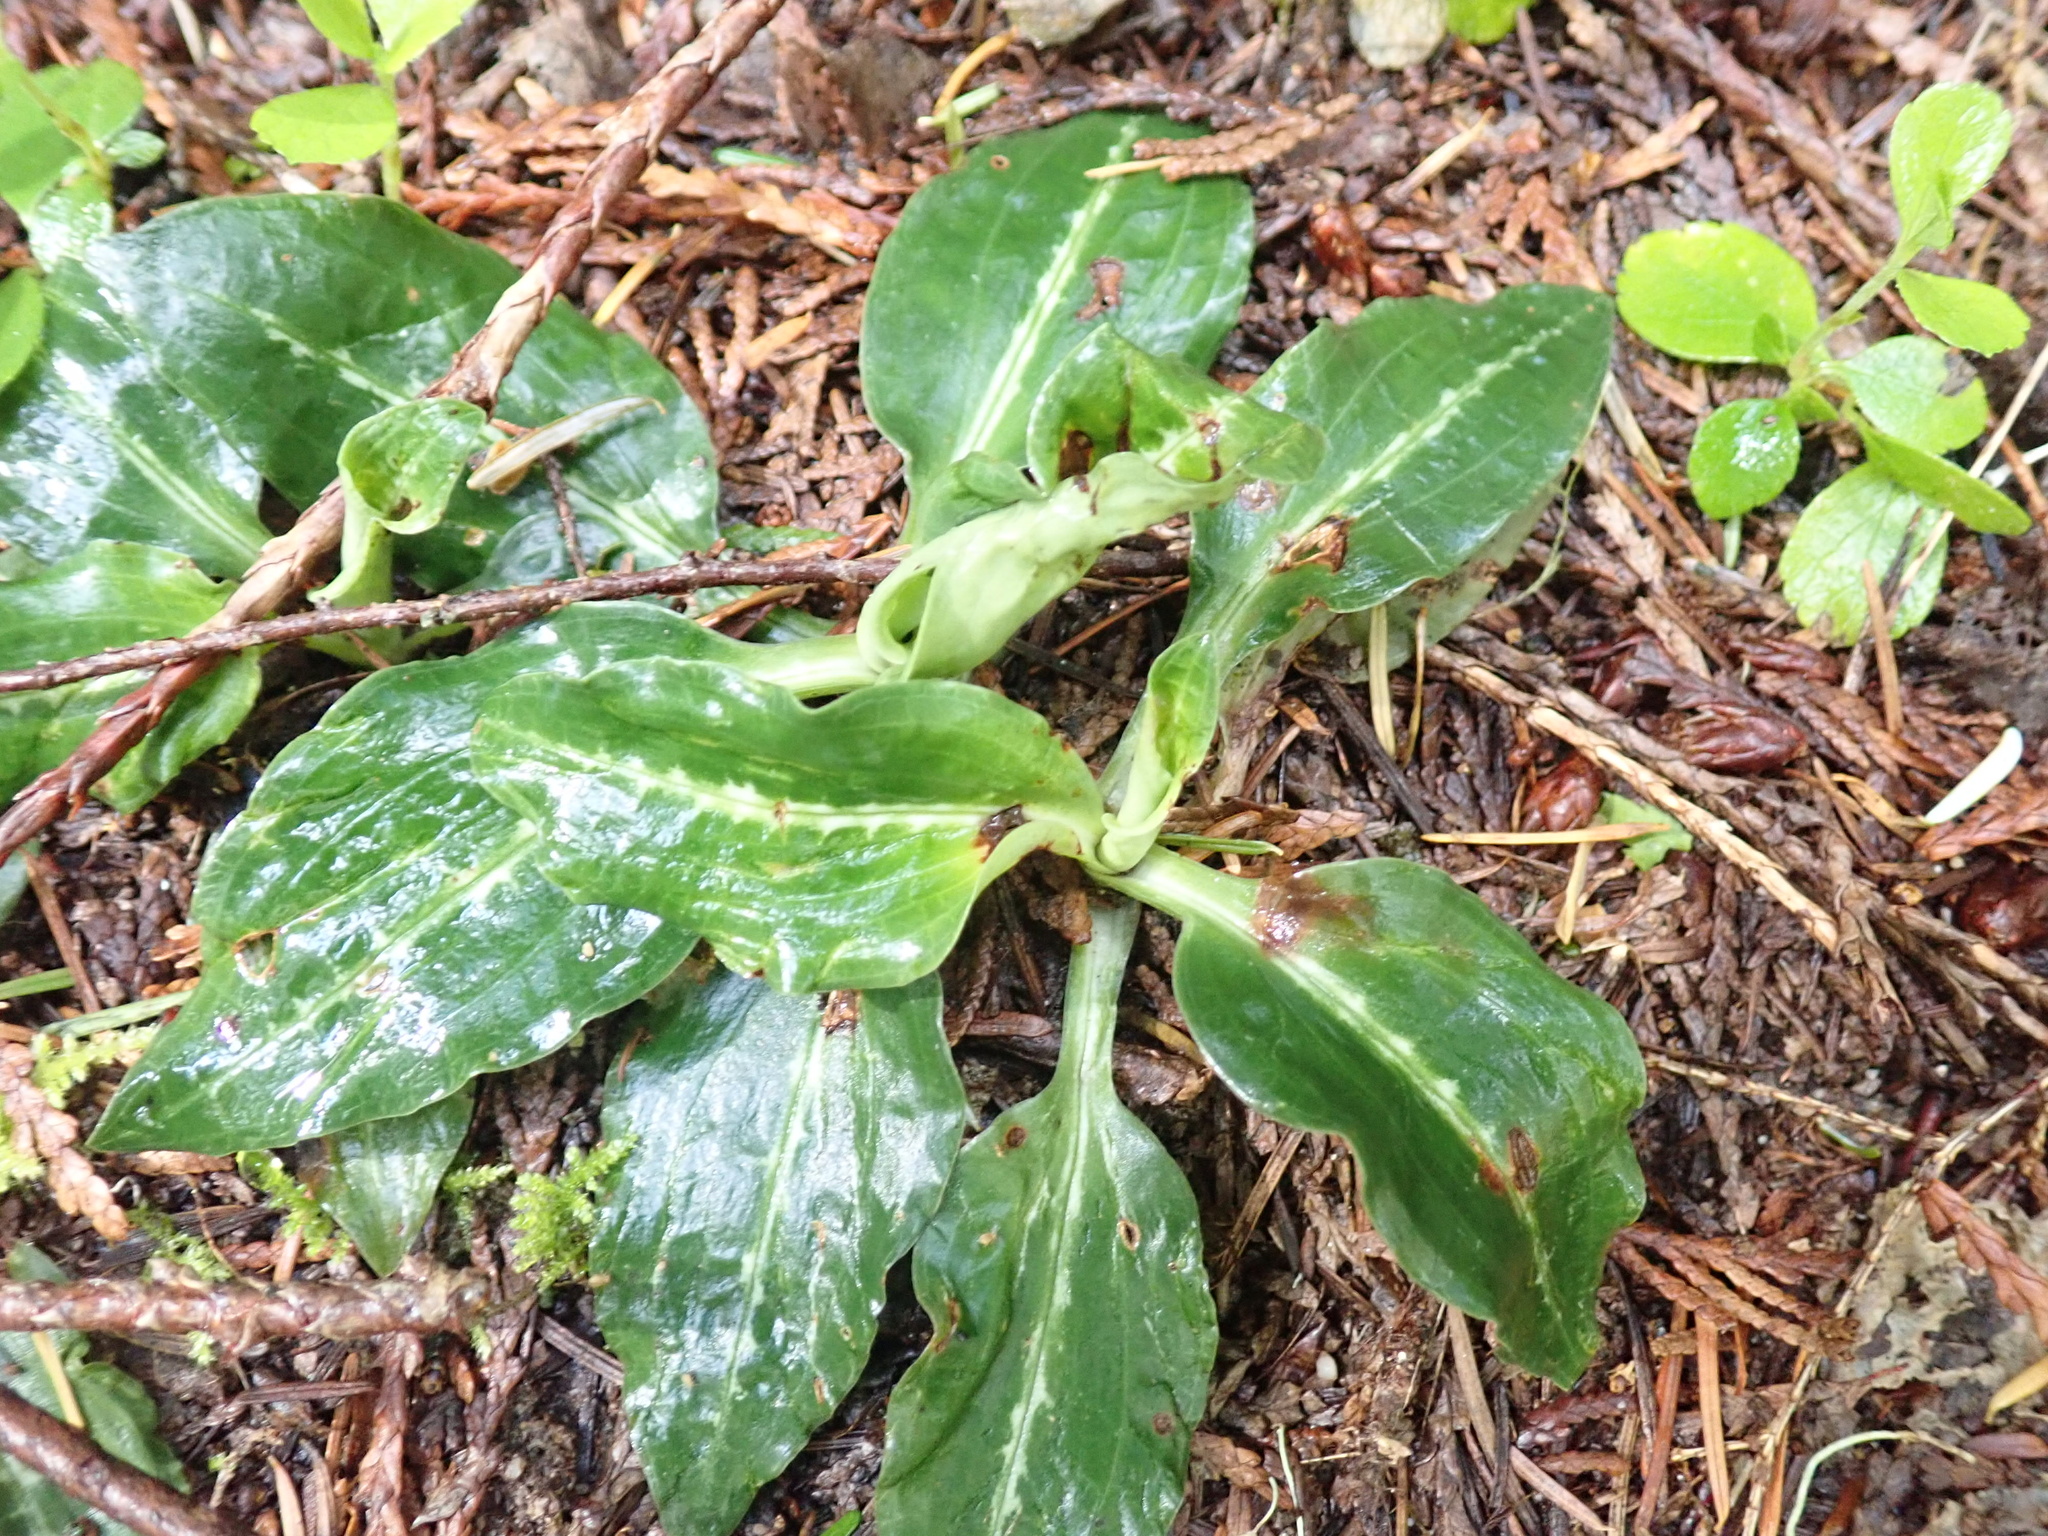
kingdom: Plantae
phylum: Tracheophyta
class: Liliopsida
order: Asparagales
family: Orchidaceae
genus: Goodyera
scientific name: Goodyera oblongifolia
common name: Giant rattlesnake-plantain
